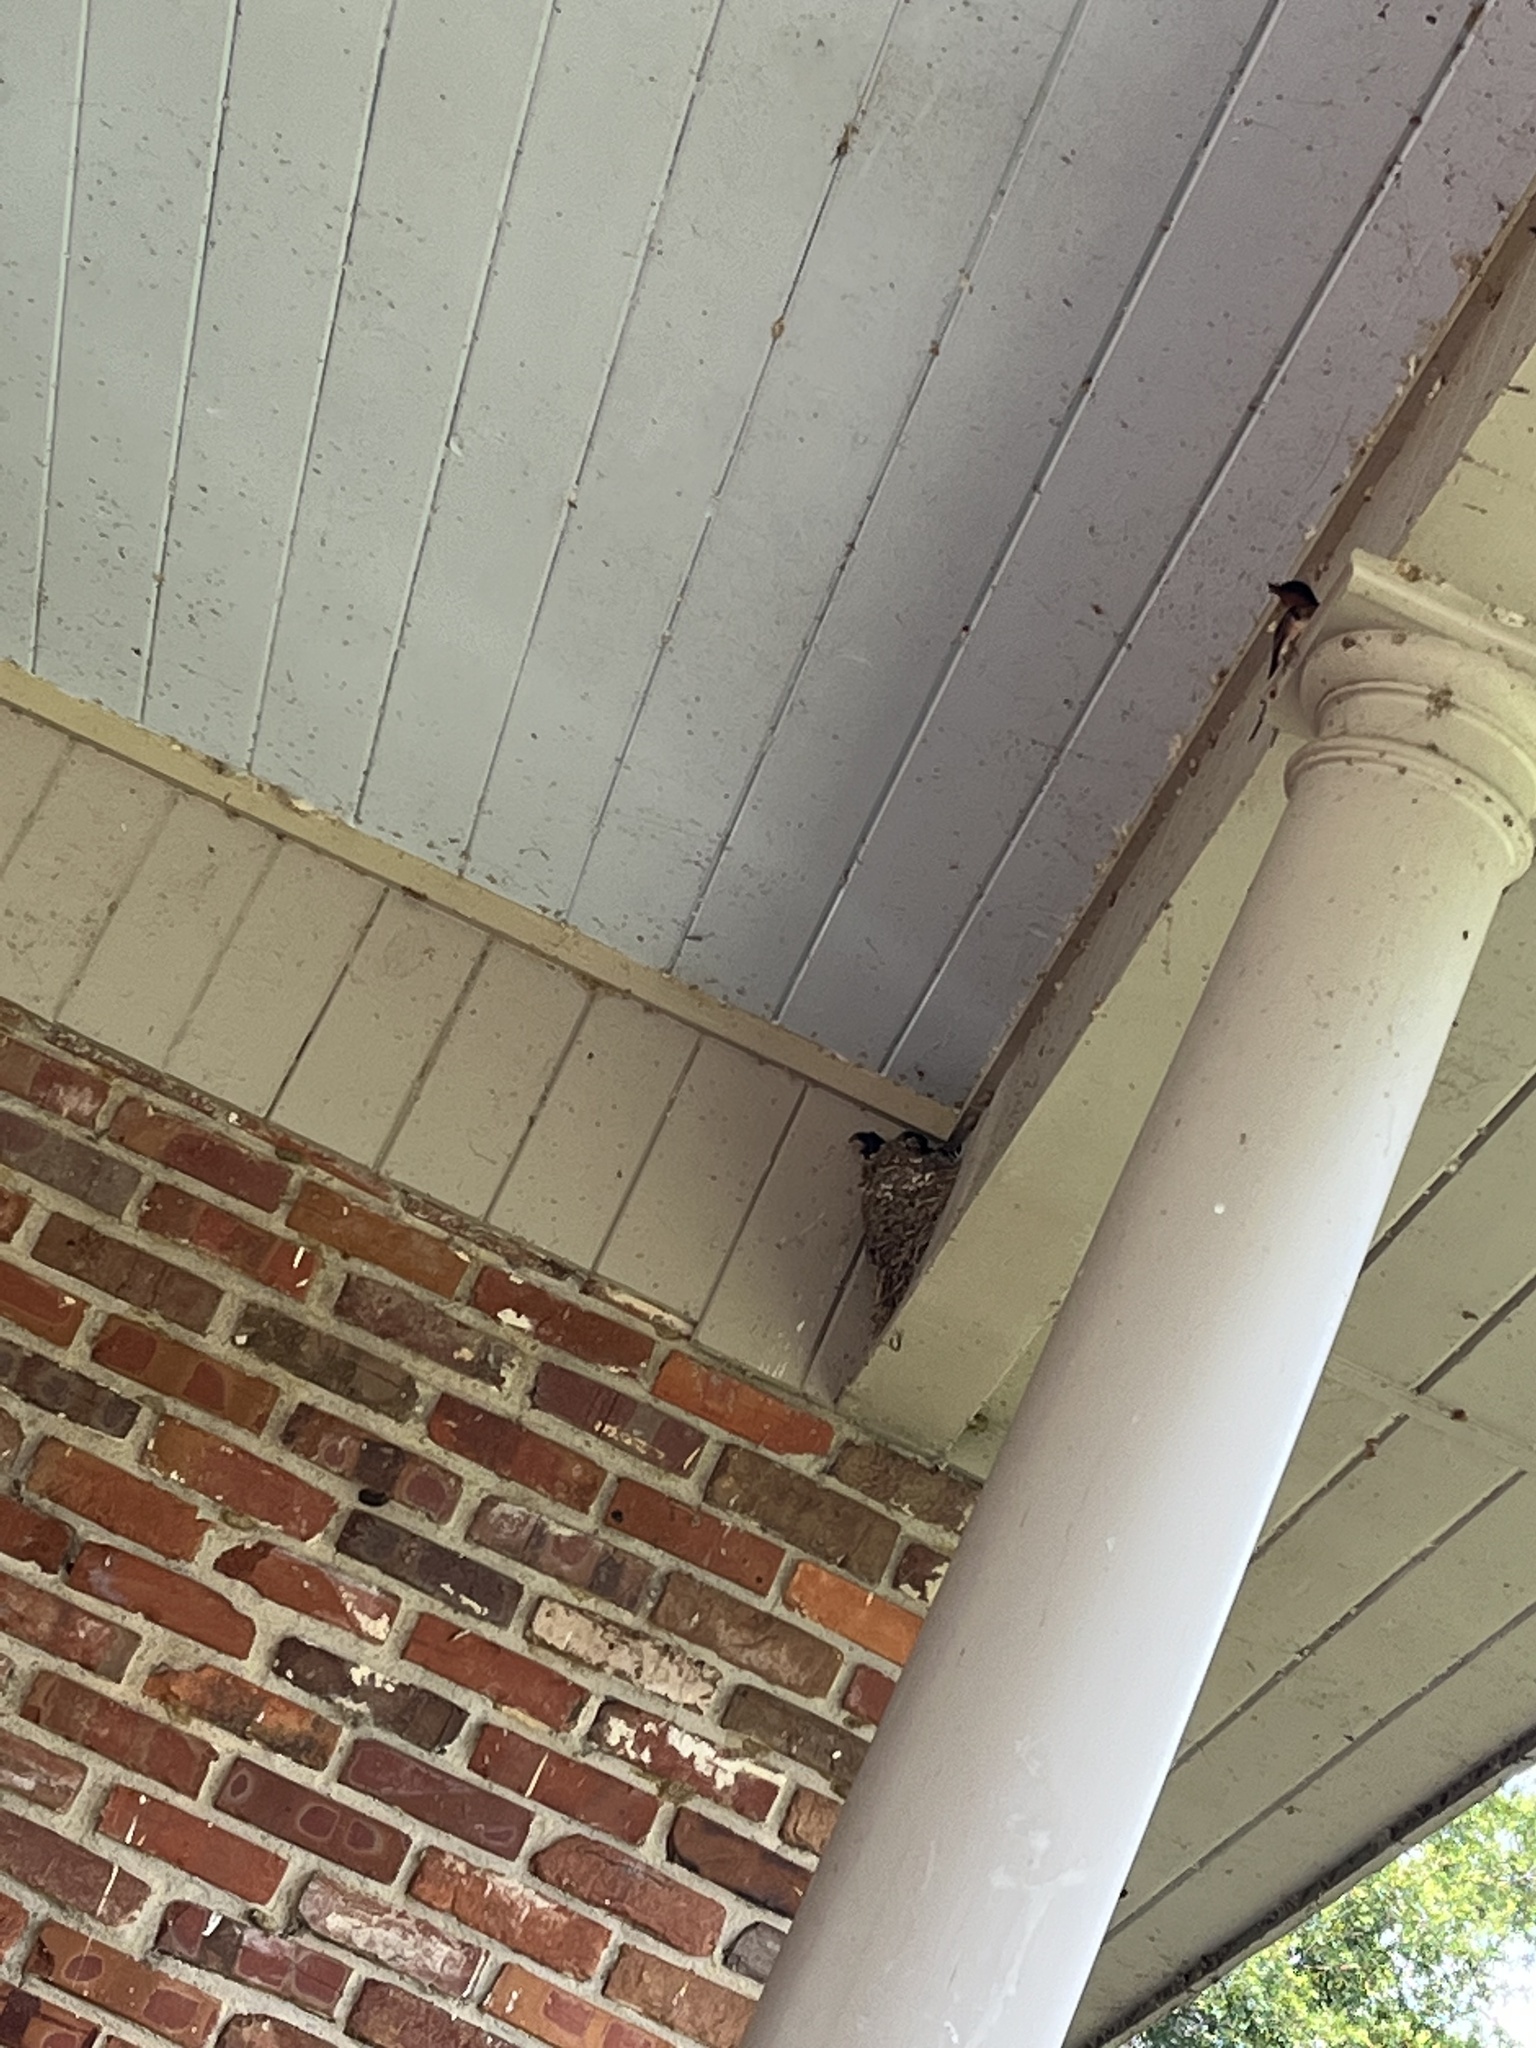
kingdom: Animalia
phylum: Chordata
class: Aves
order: Passeriformes
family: Hirundinidae
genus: Hirundo
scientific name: Hirundo rustica
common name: Barn swallow
